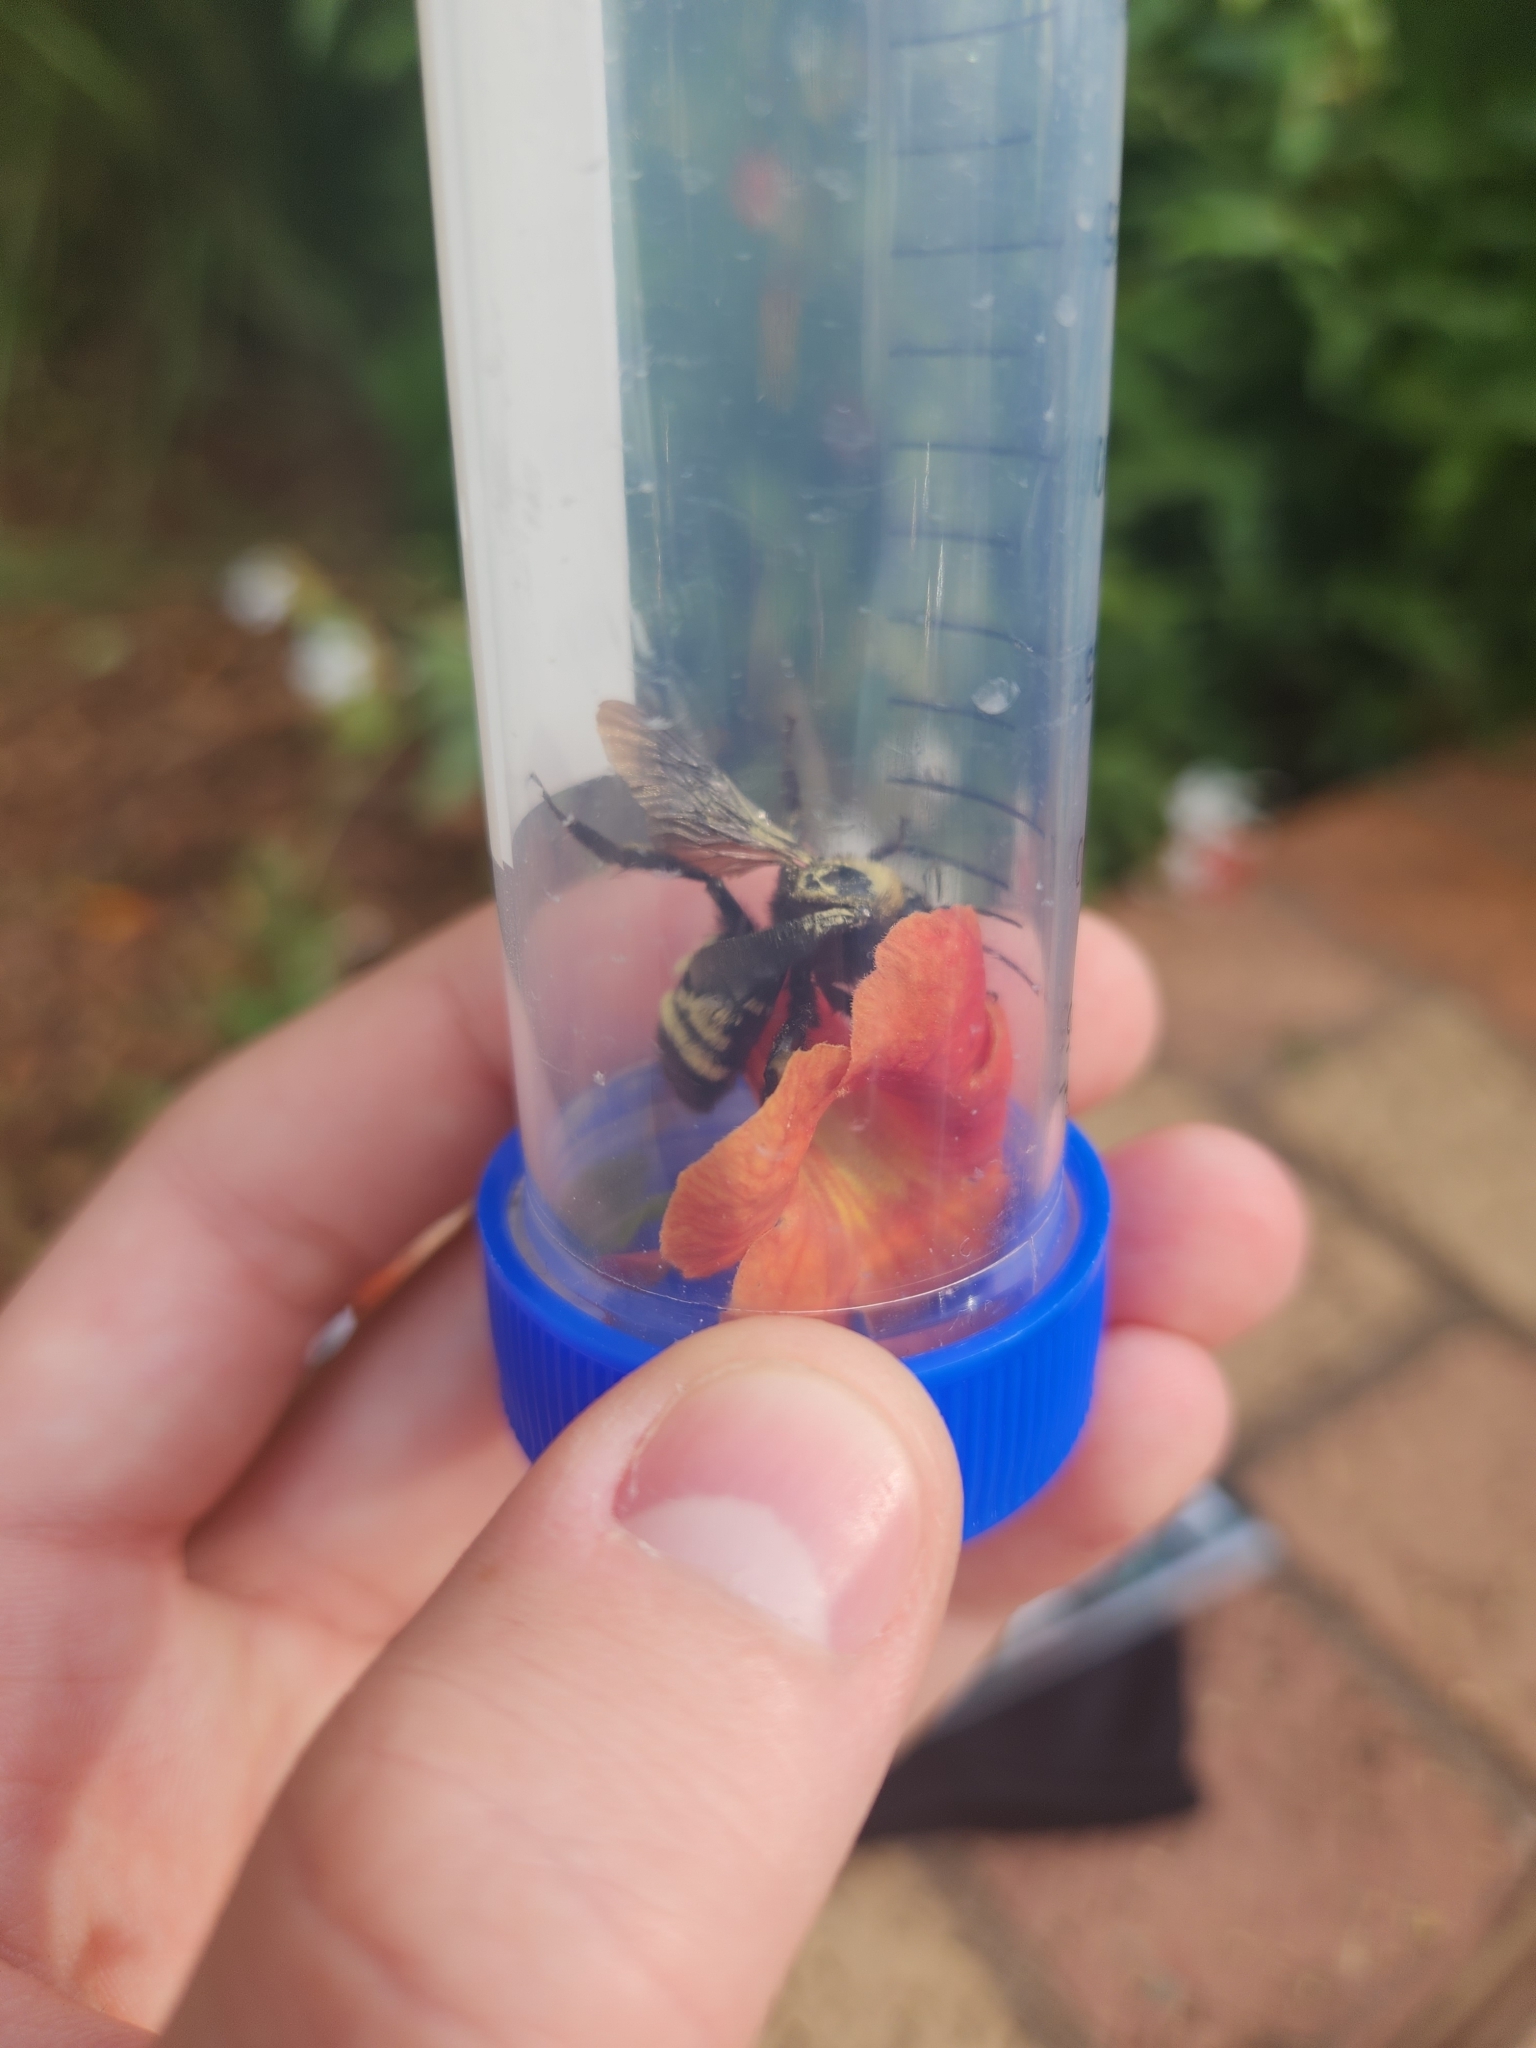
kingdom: Animalia
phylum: Arthropoda
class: Insecta
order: Hymenoptera
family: Apidae
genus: Bombus
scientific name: Bombus pensylvanicus
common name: Bumble bee
